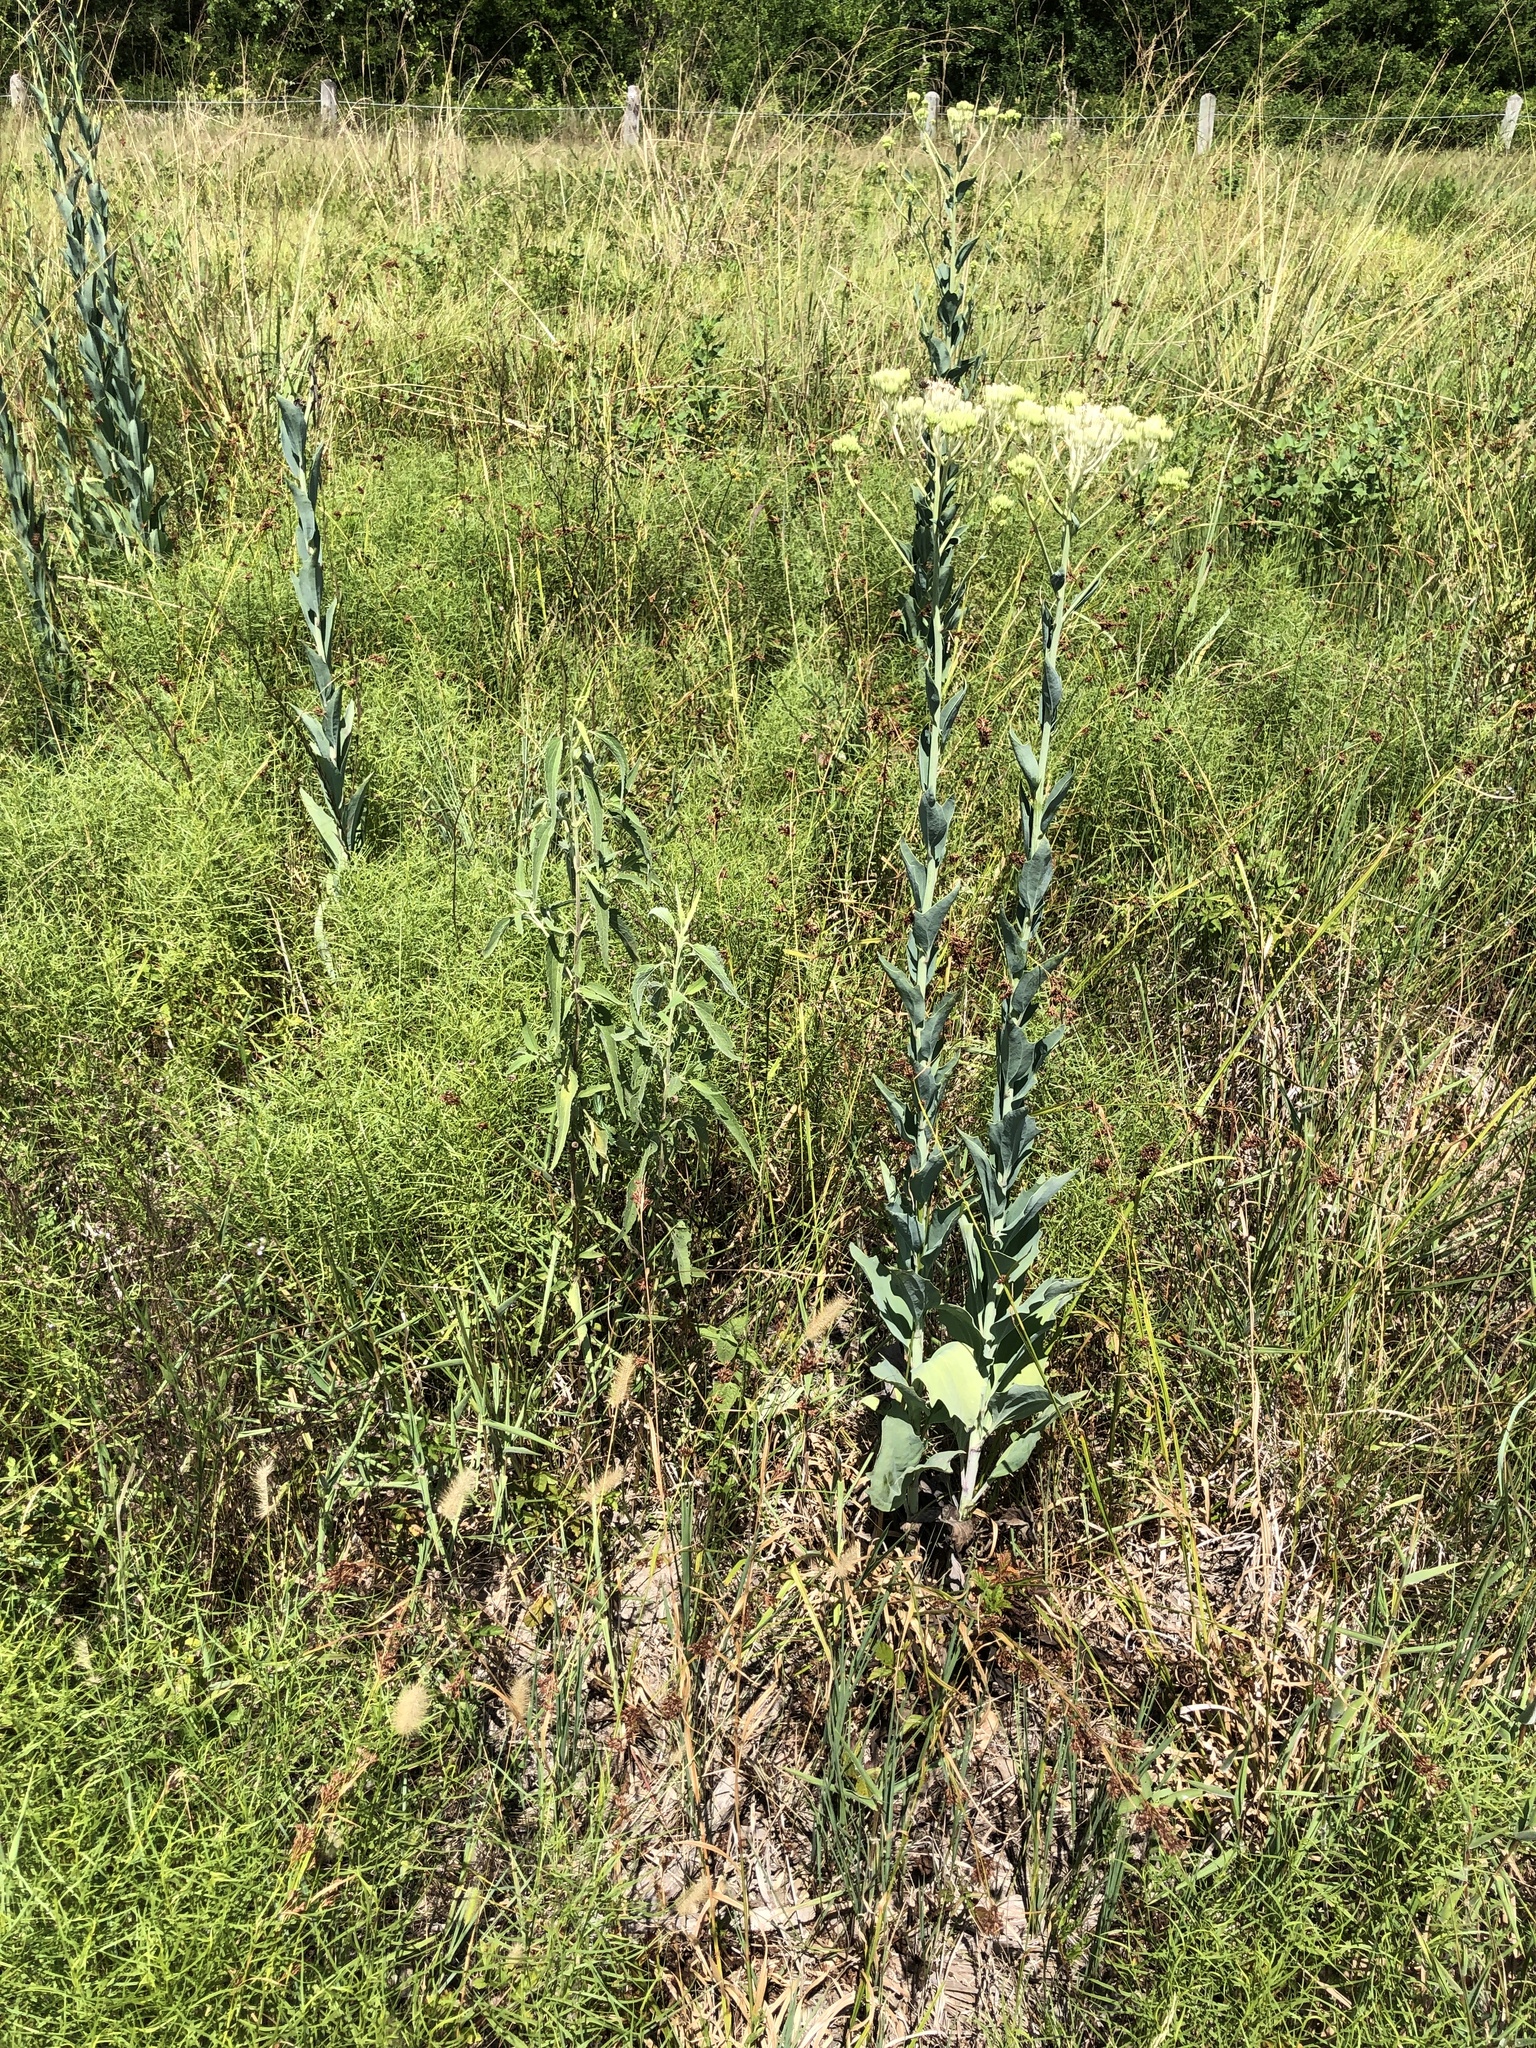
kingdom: Plantae
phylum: Tracheophyta
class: Magnoliopsida
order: Asterales
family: Asteraceae
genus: Arnoglossum
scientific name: Arnoglossum ovatum
